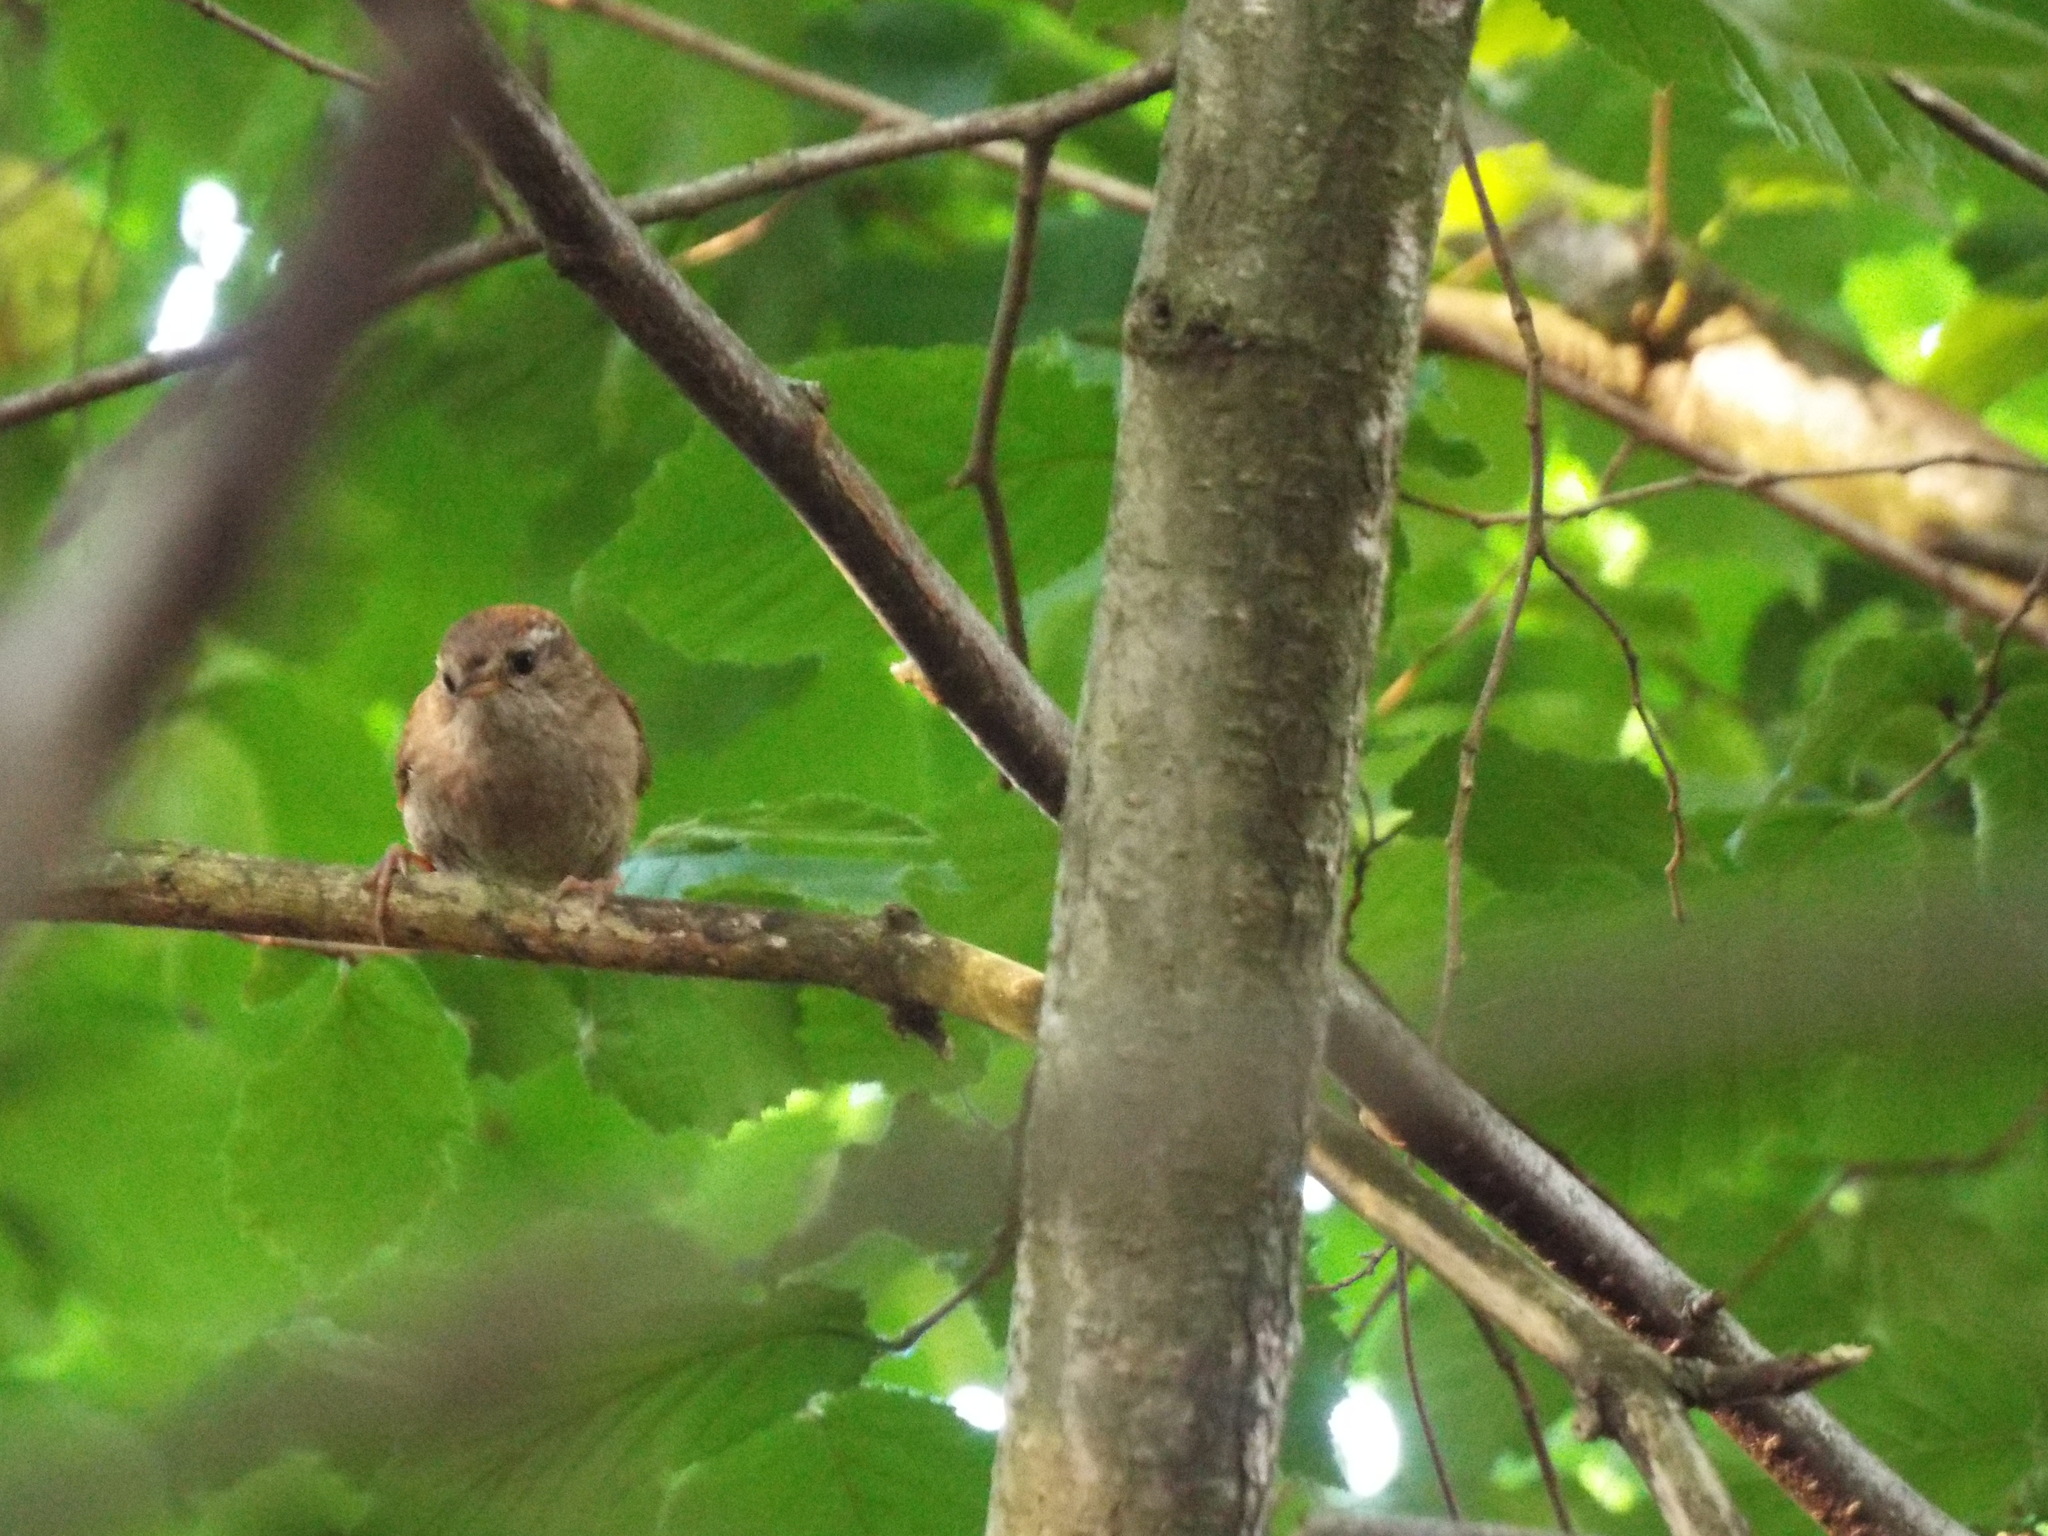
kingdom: Animalia
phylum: Chordata
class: Aves
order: Passeriformes
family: Troglodytidae
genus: Troglodytes
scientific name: Troglodytes troglodytes
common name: Eurasian wren
